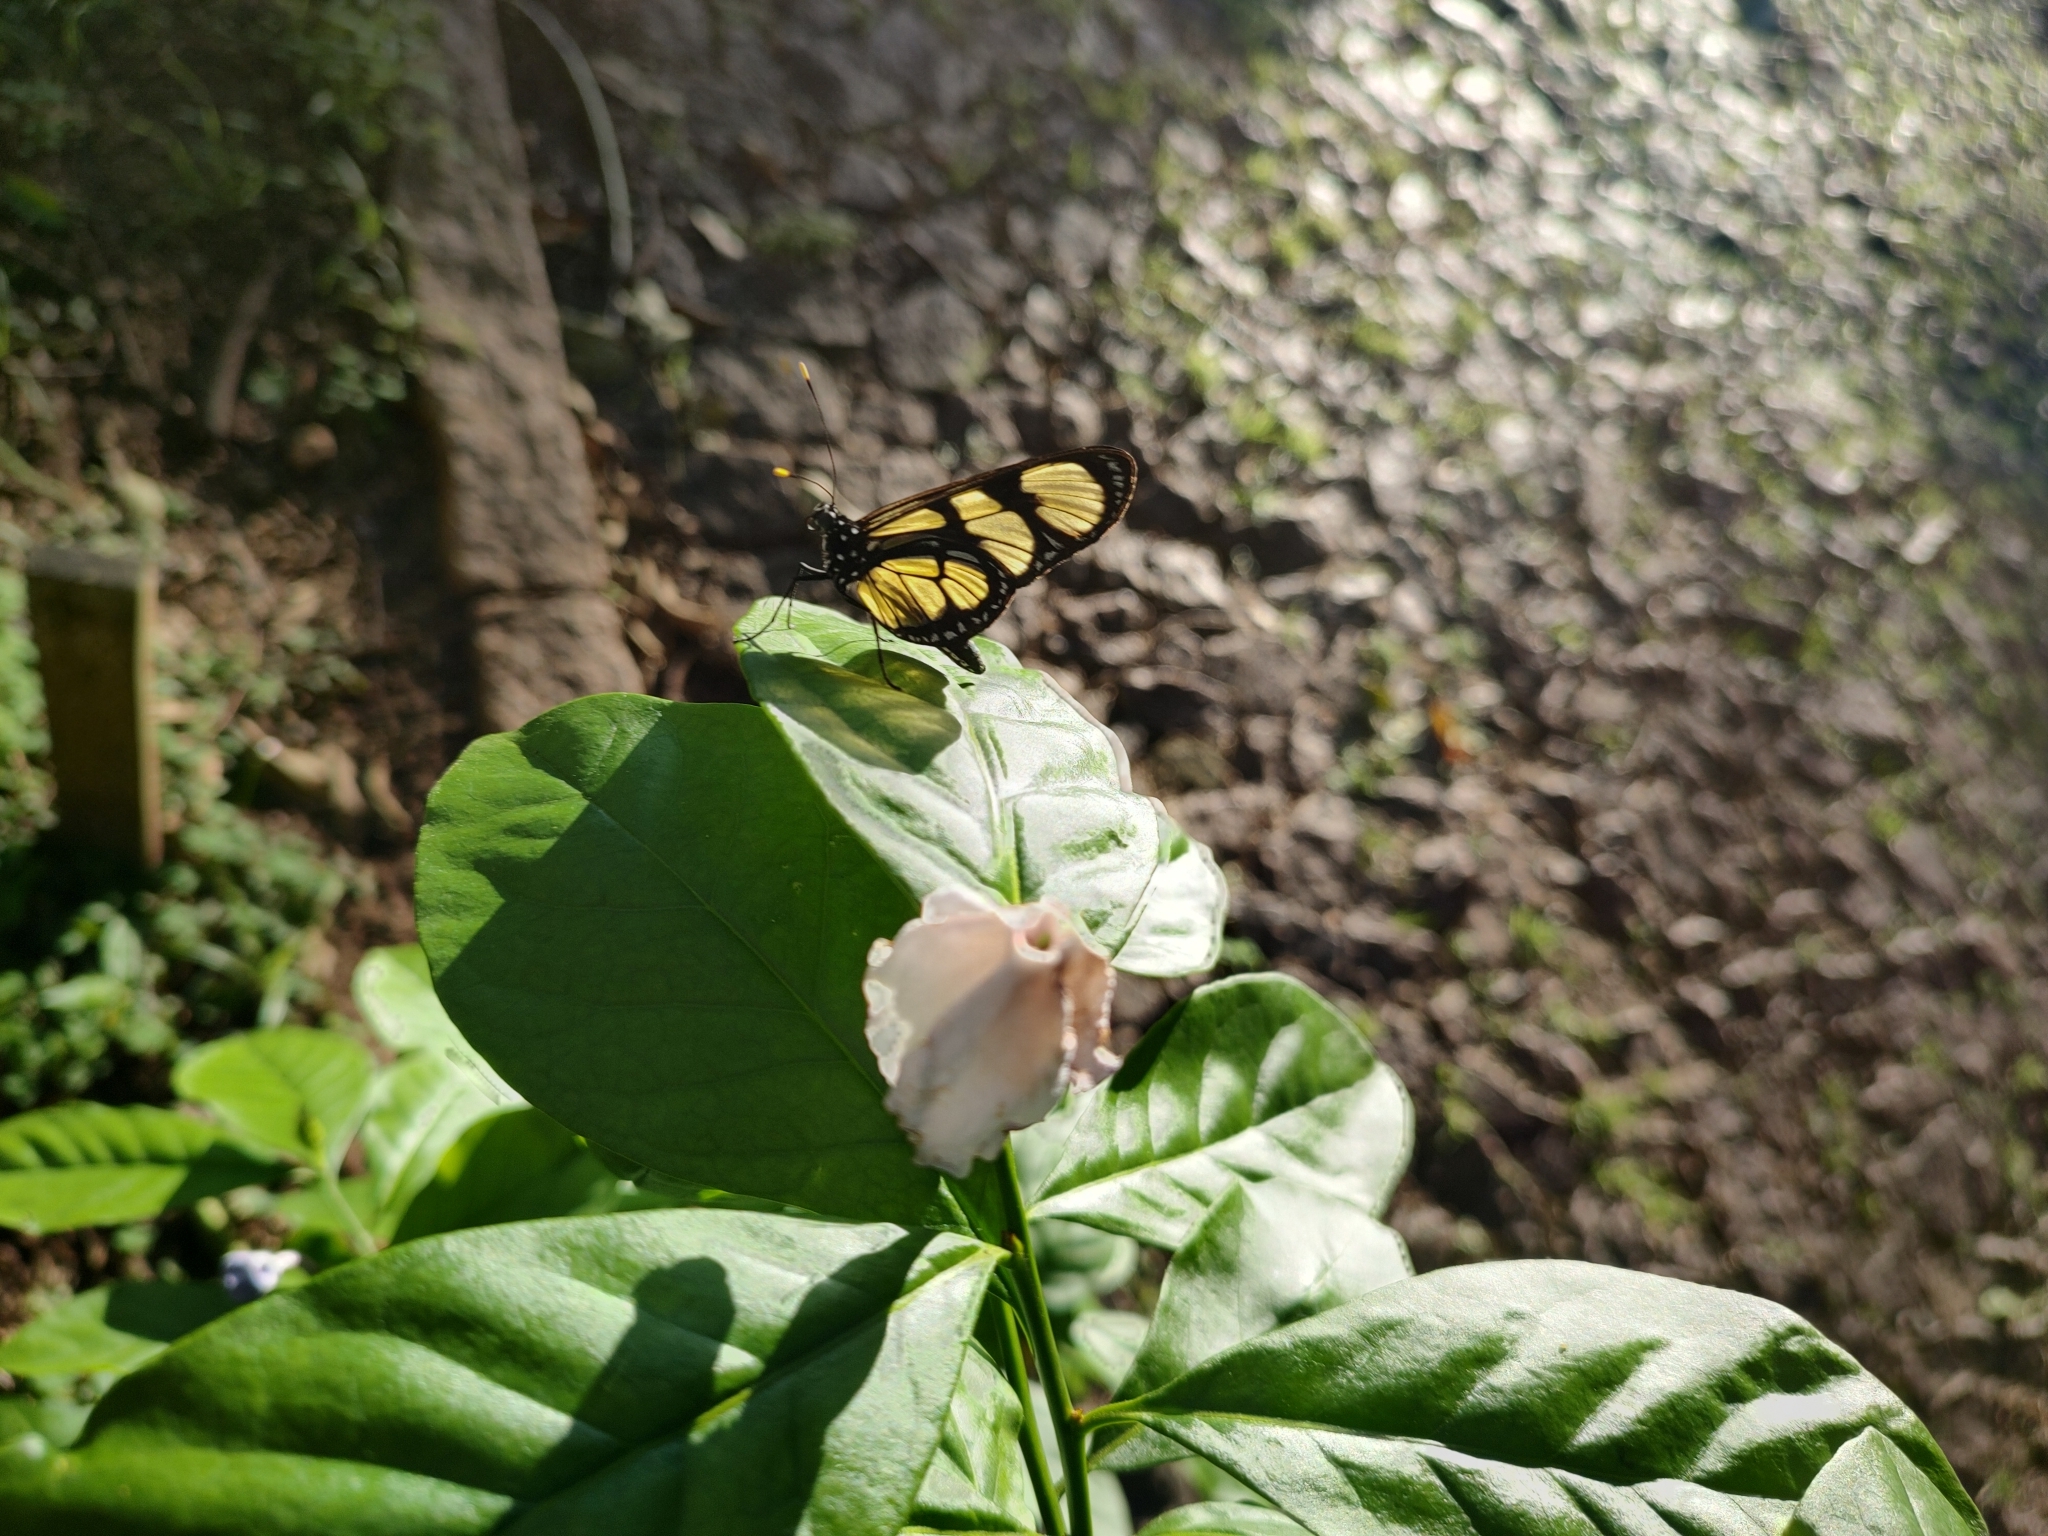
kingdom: Animalia
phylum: Arthropoda
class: Insecta
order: Lepidoptera
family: Nymphalidae
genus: Methona
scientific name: Methona themisto
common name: Themisto amberwing
